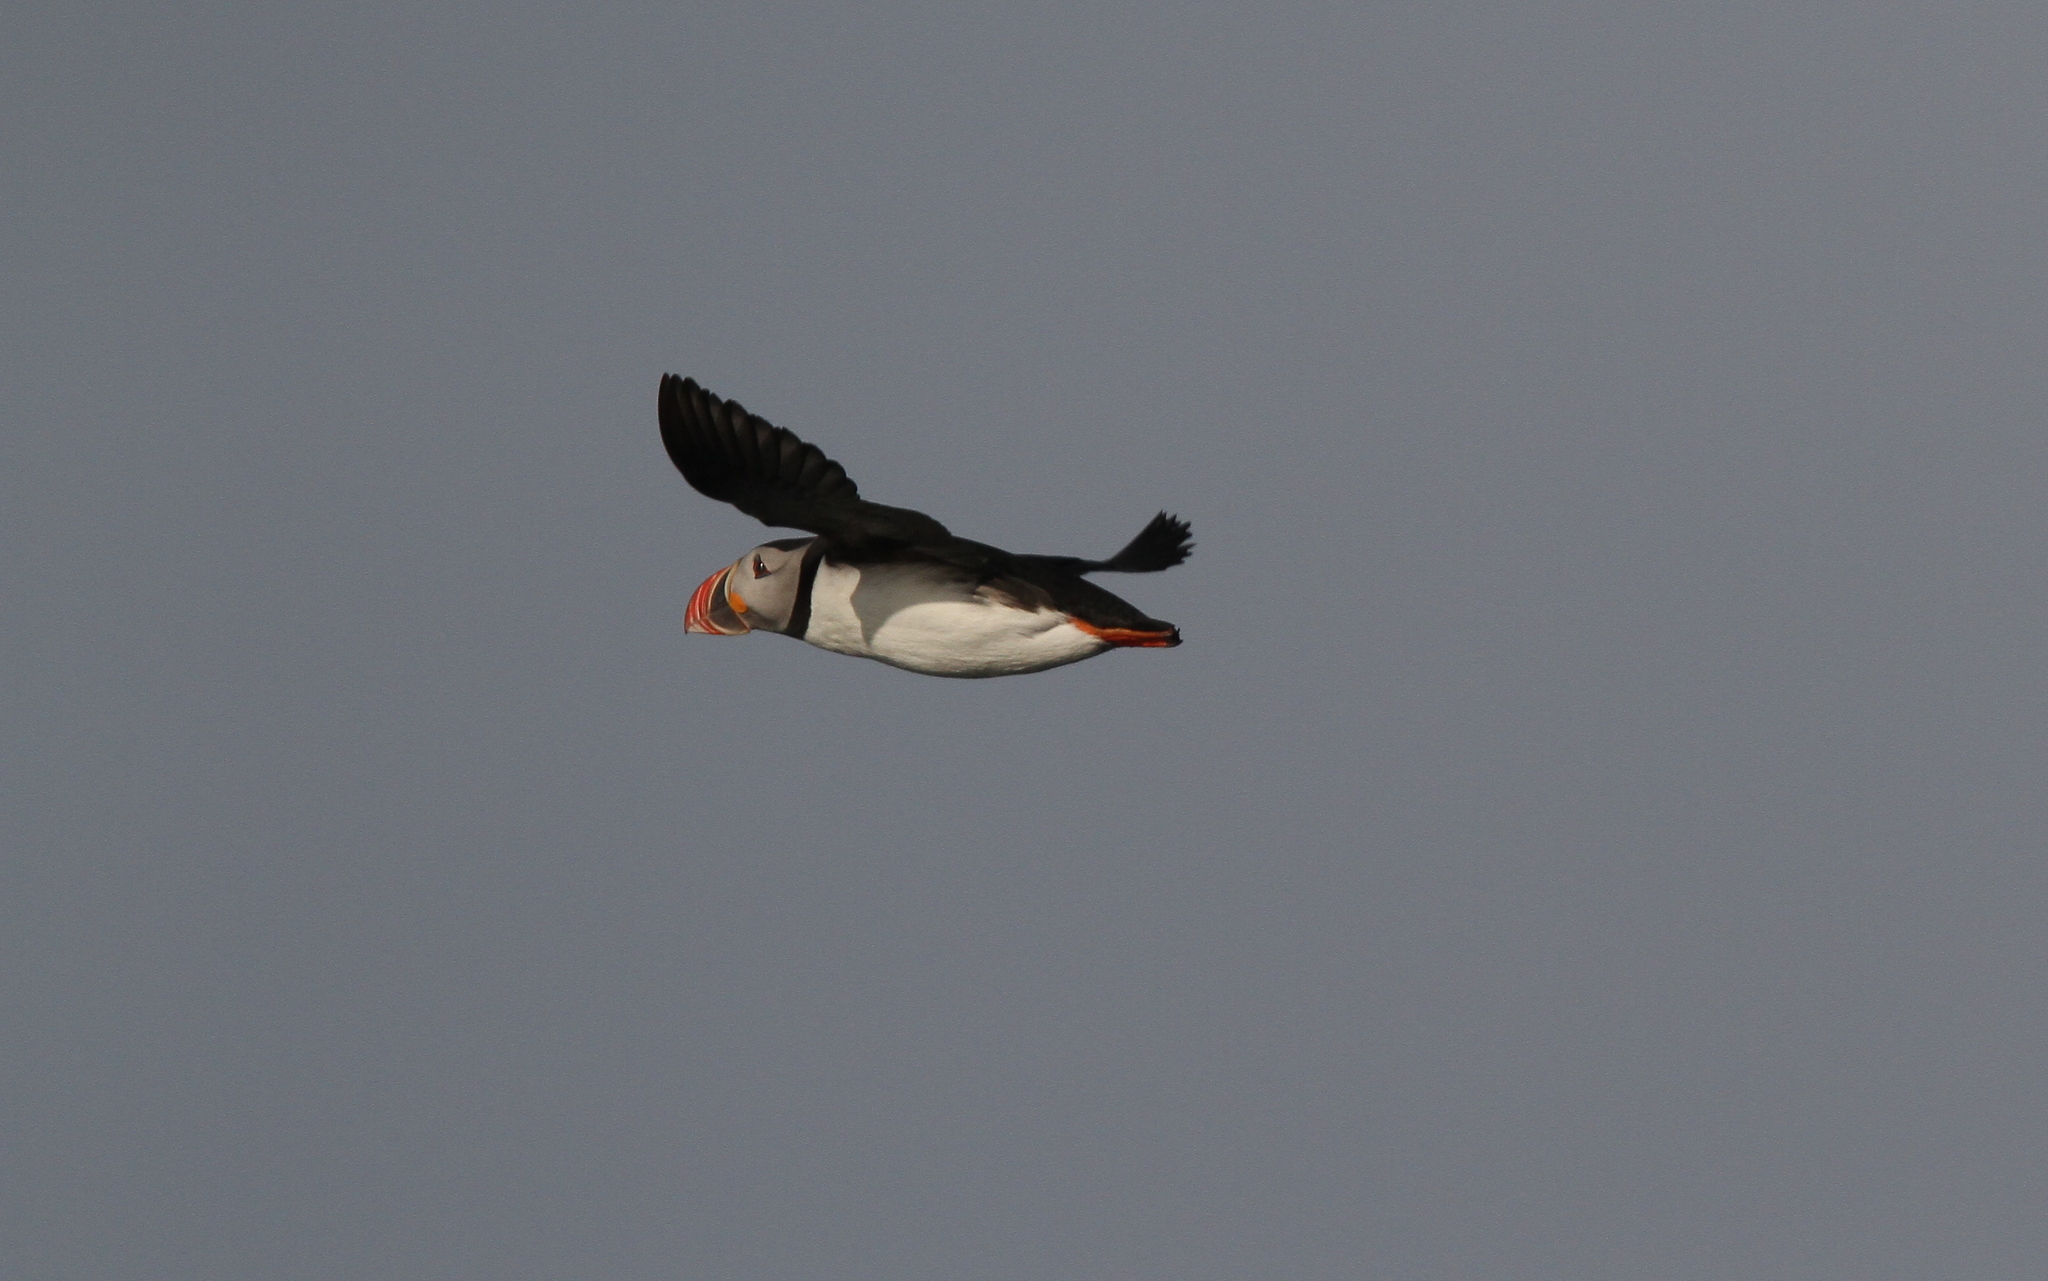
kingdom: Animalia
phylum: Chordata
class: Aves
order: Charadriiformes
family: Alcidae
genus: Fratercula
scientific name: Fratercula arctica
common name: Atlantic puffin
